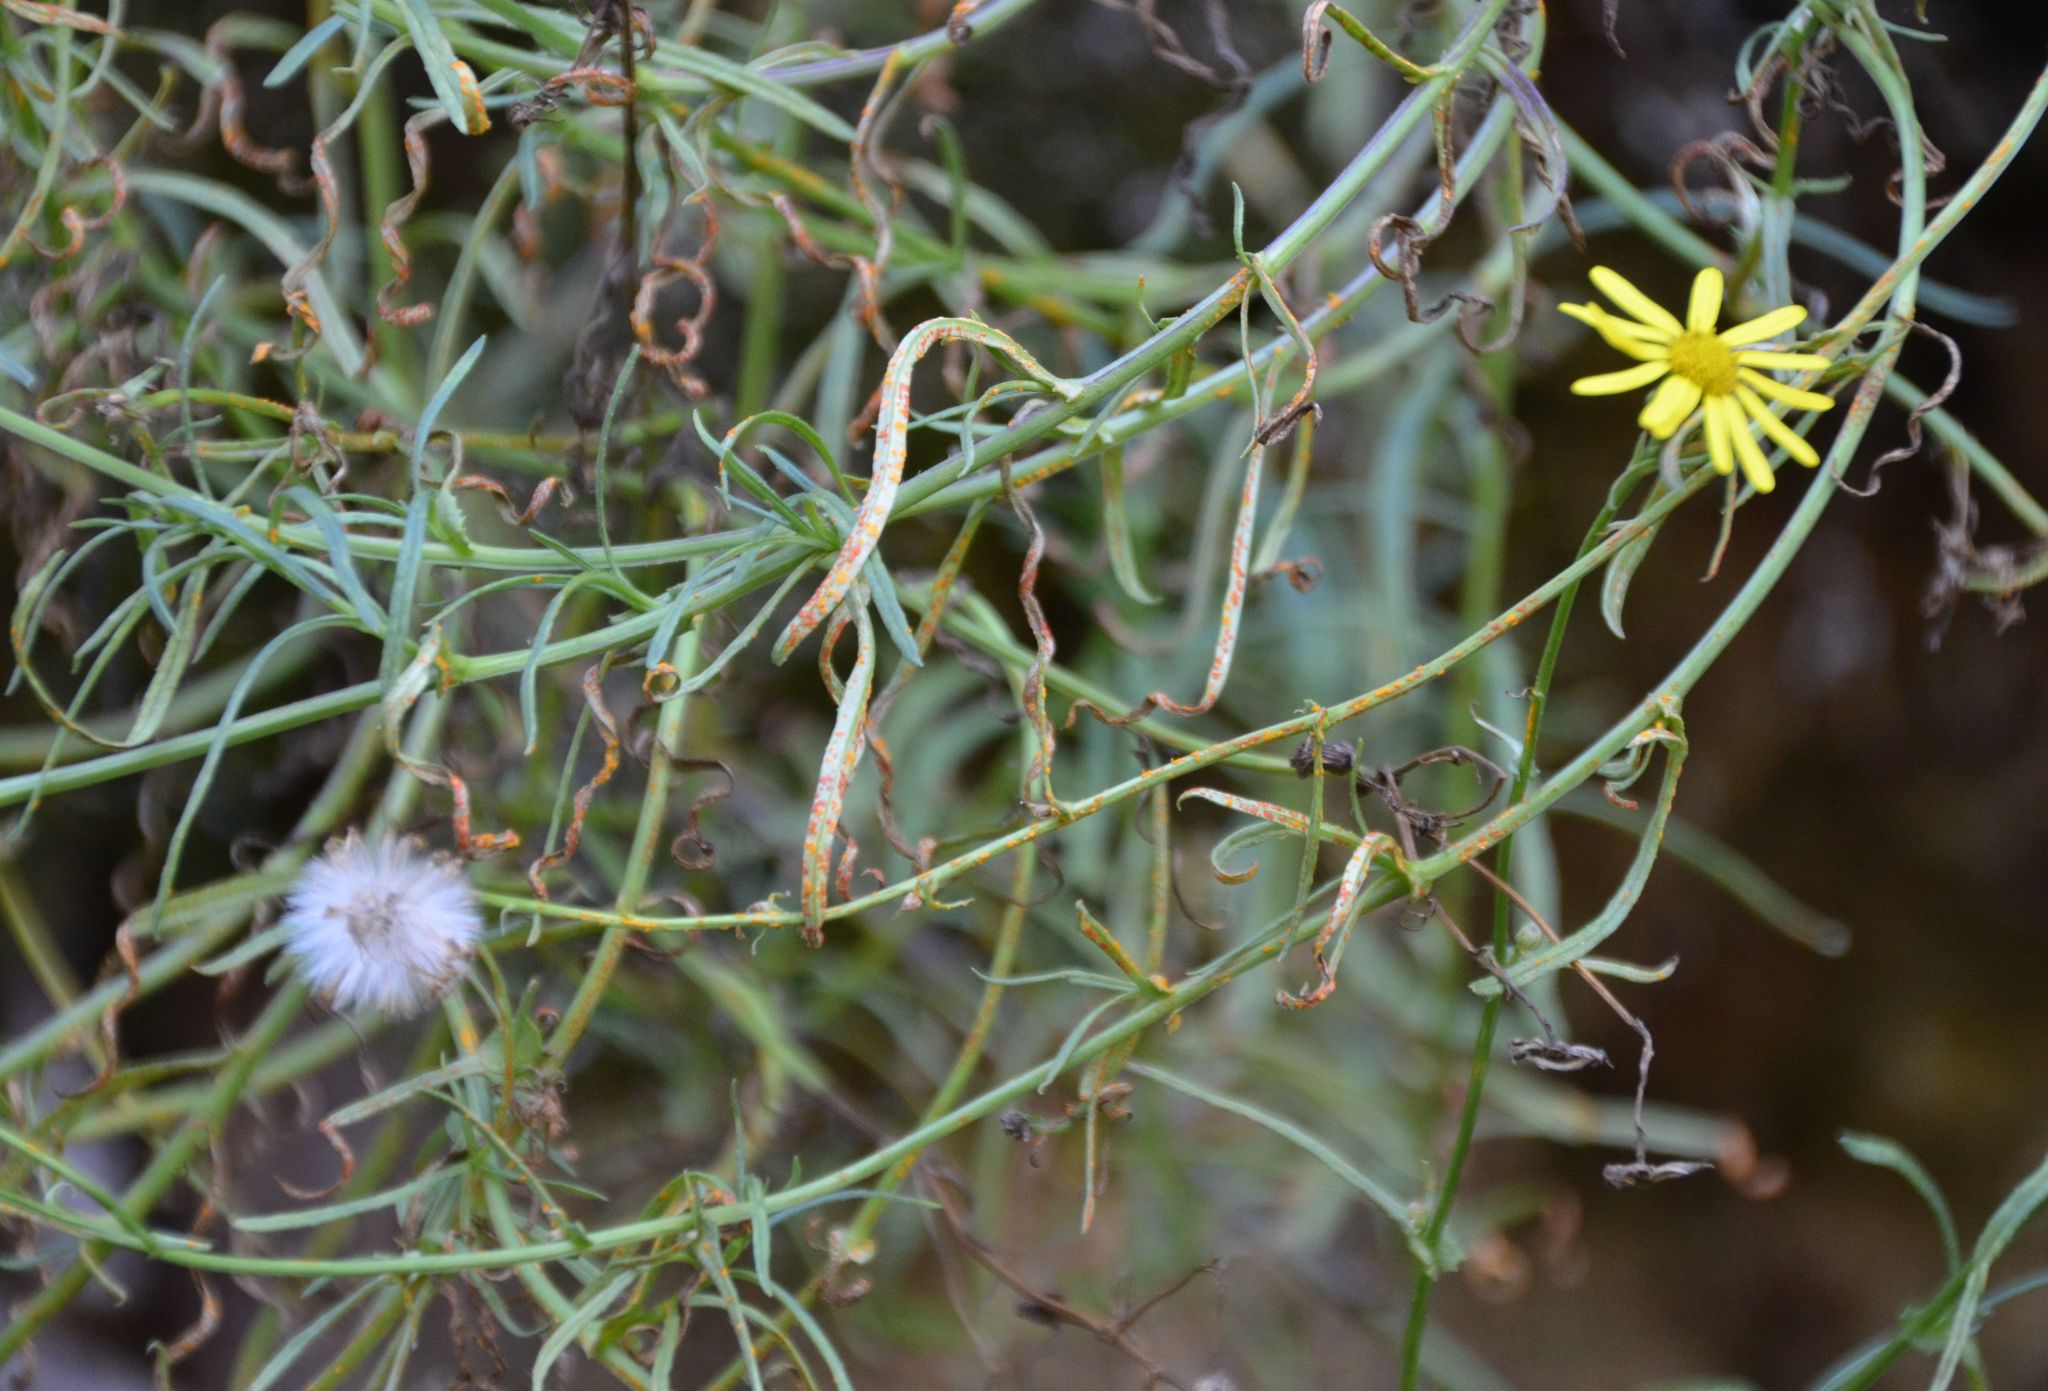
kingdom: Plantae
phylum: Tracheophyta
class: Magnoliopsida
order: Asterales
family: Asteraceae
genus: Senecio
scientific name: Senecio inaequidens
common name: Narrow-leaved ragwort
